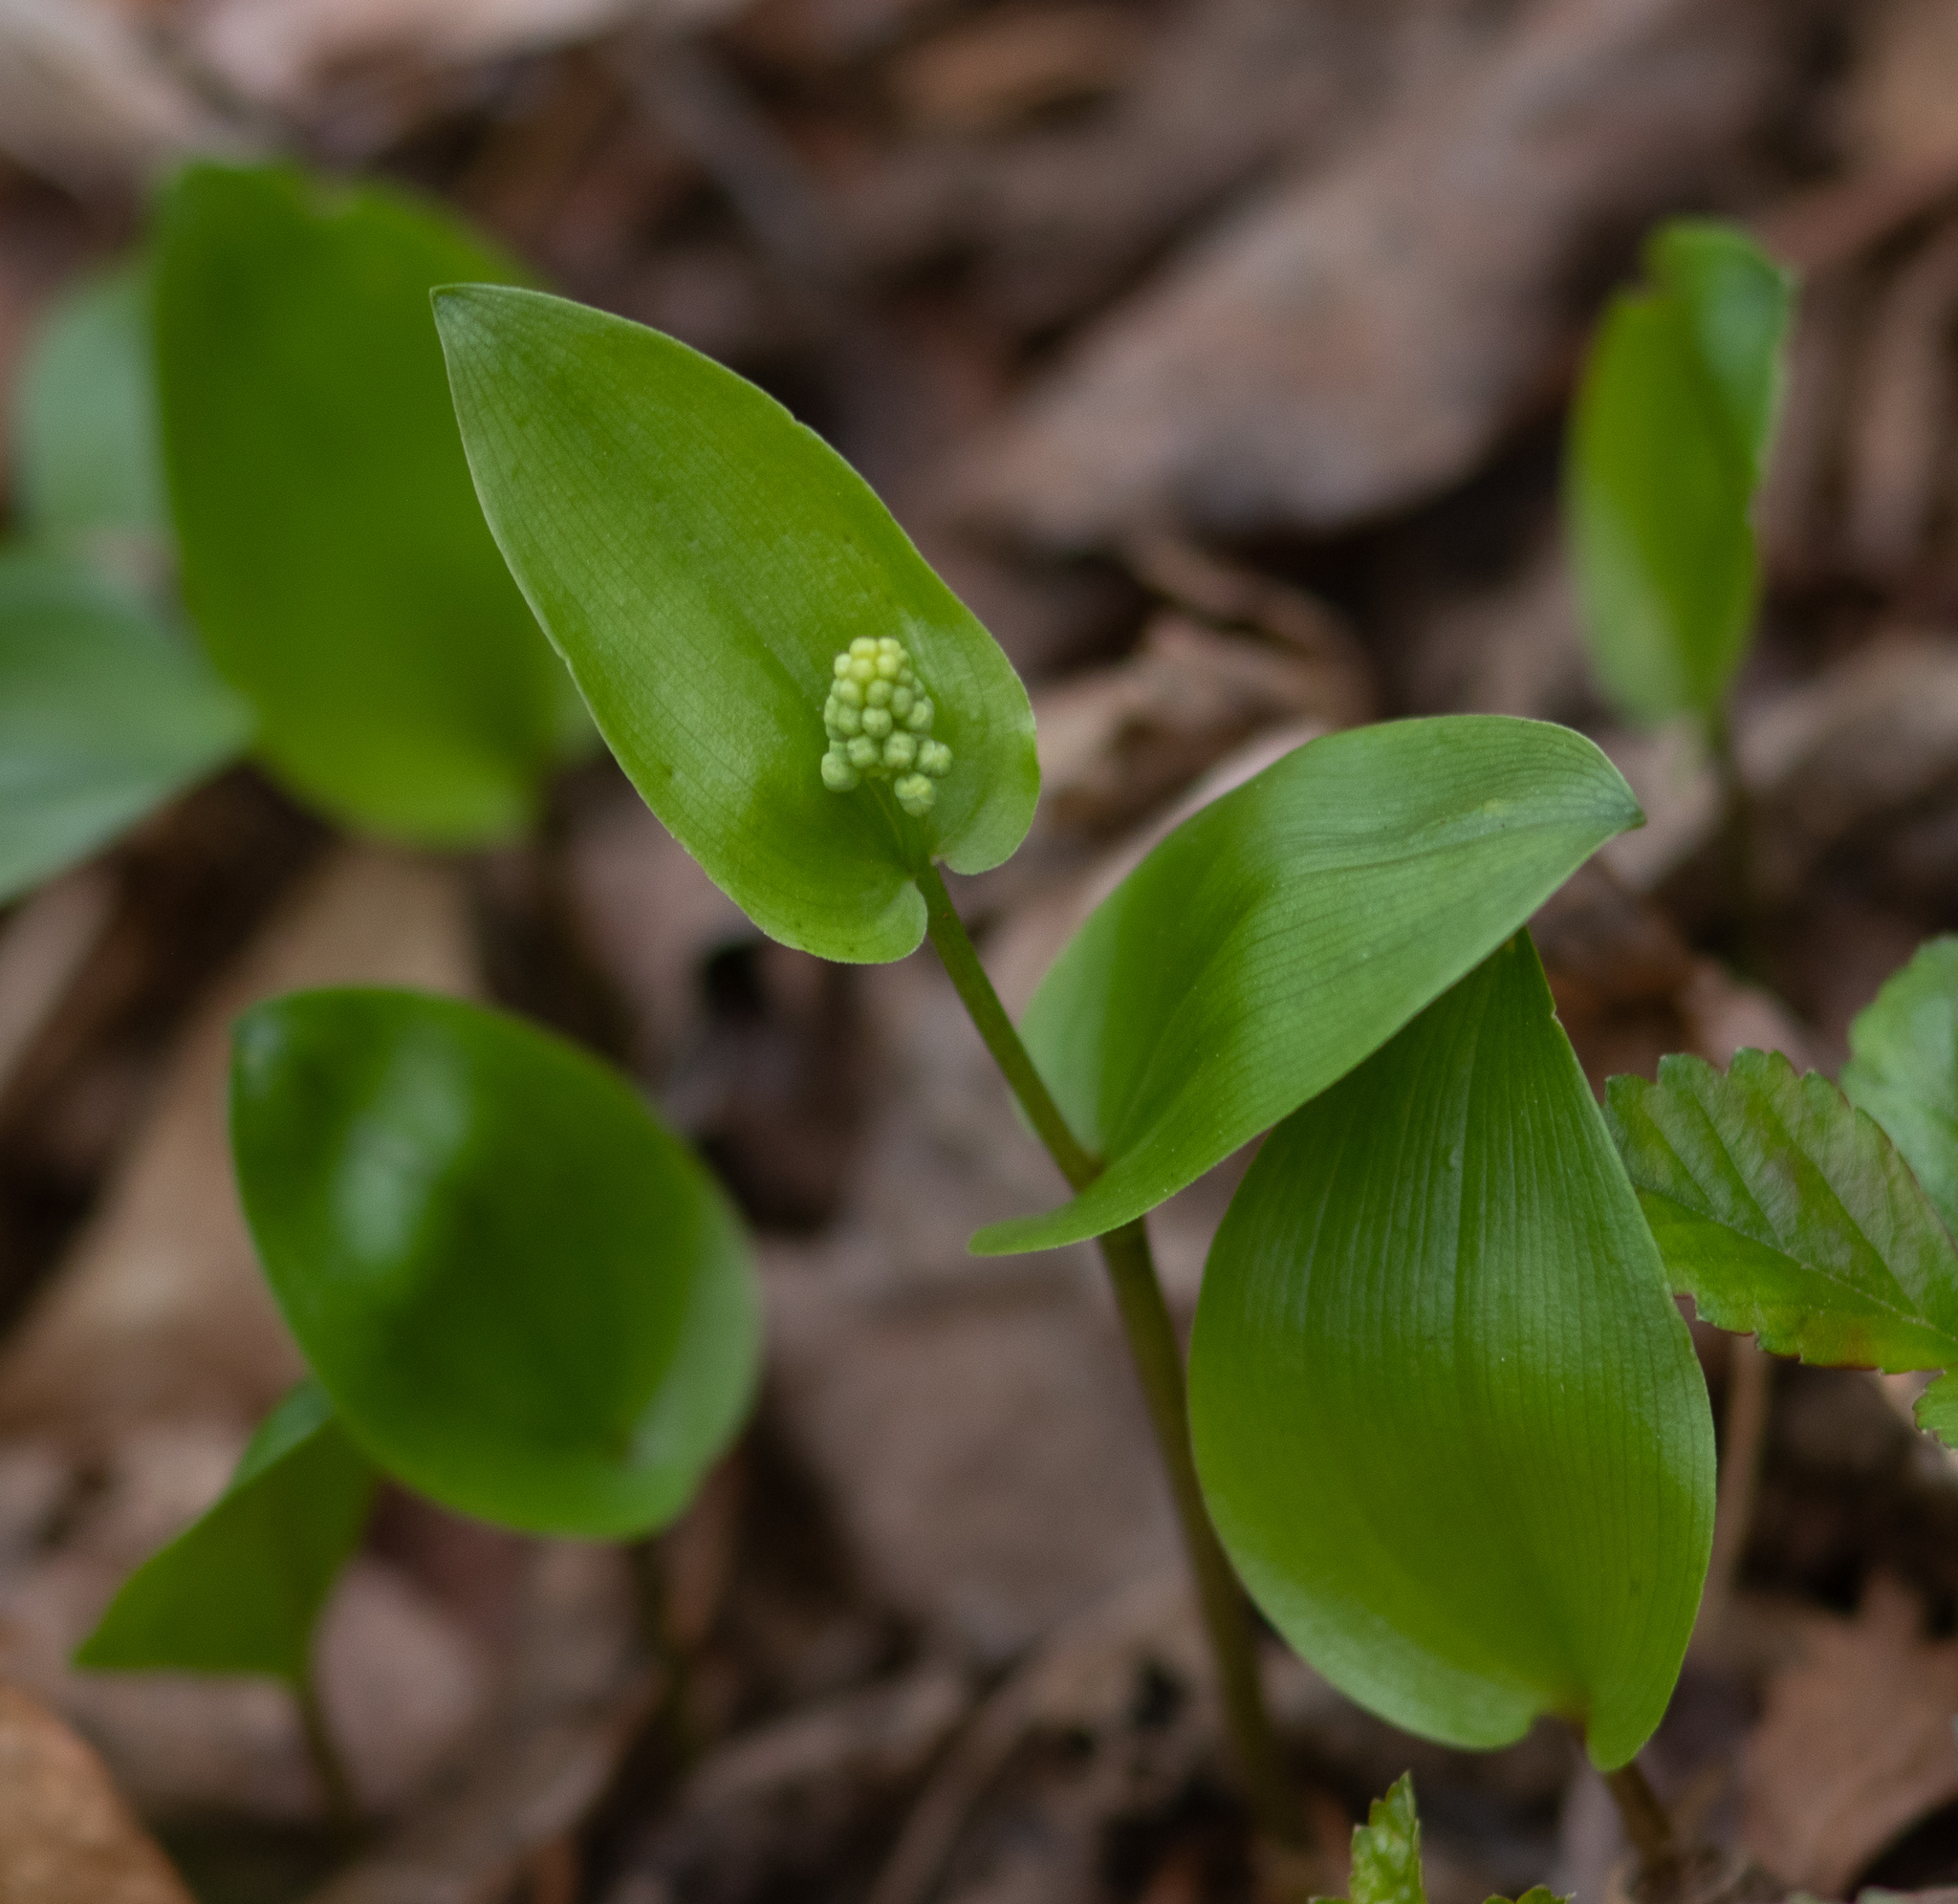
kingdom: Plantae
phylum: Tracheophyta
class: Liliopsida
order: Asparagales
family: Asparagaceae
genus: Maianthemum
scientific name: Maianthemum canadense
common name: False lily-of-the-valley
